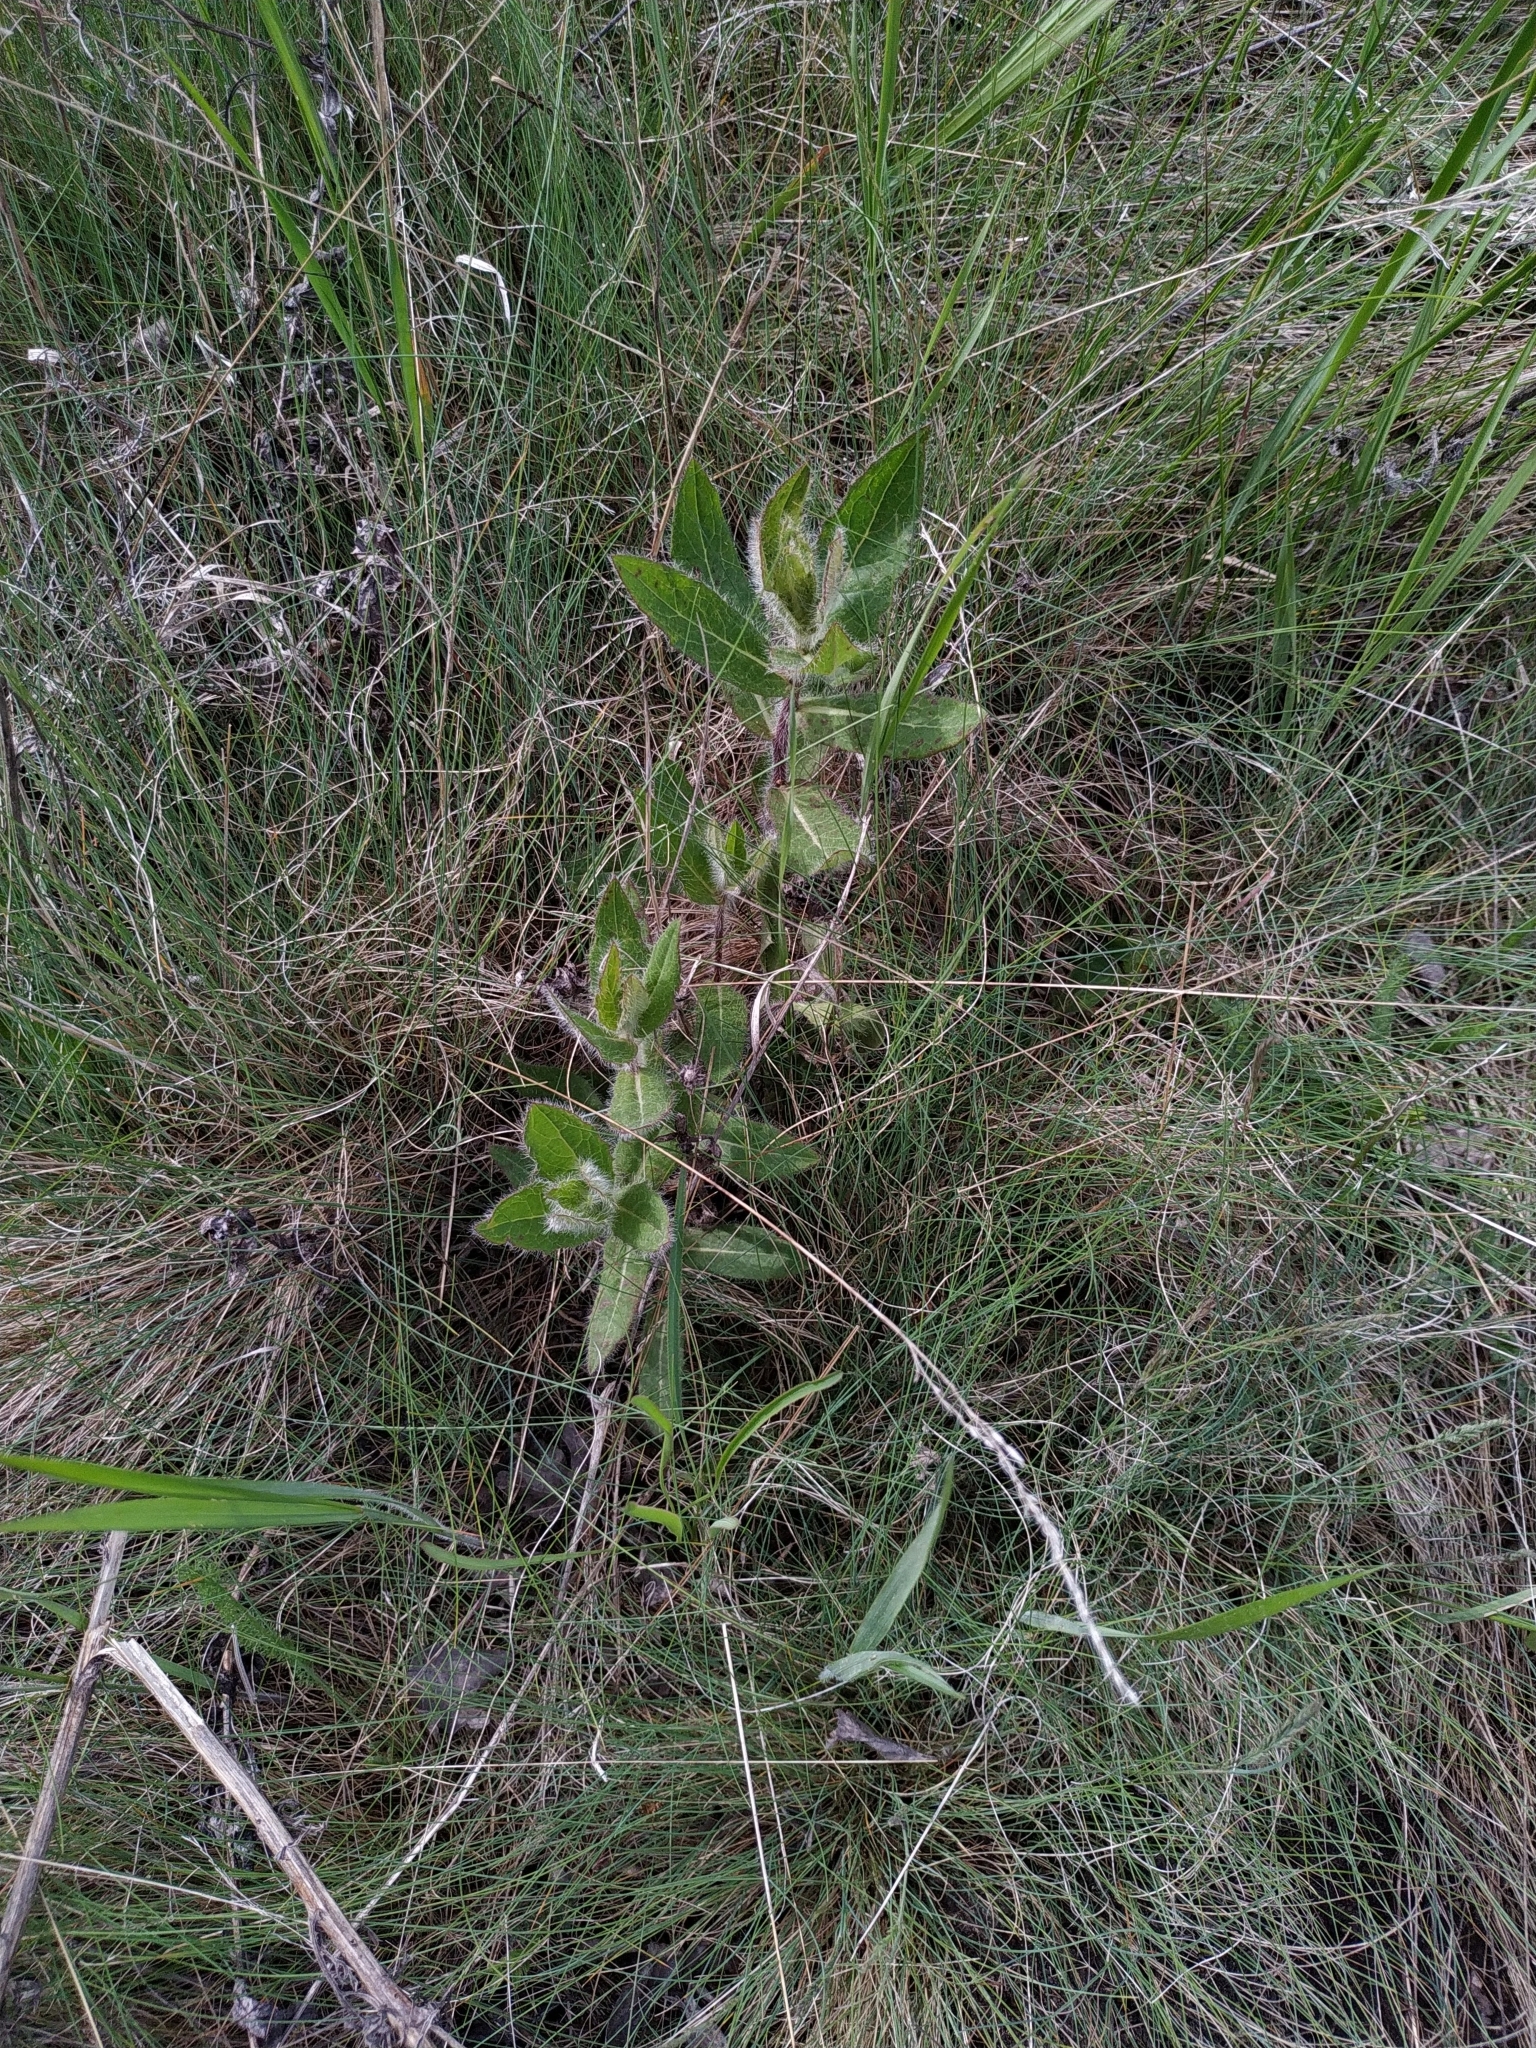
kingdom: Plantae
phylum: Tracheophyta
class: Magnoliopsida
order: Asterales
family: Asteraceae
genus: Hieracium
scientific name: Hieracium virosum
